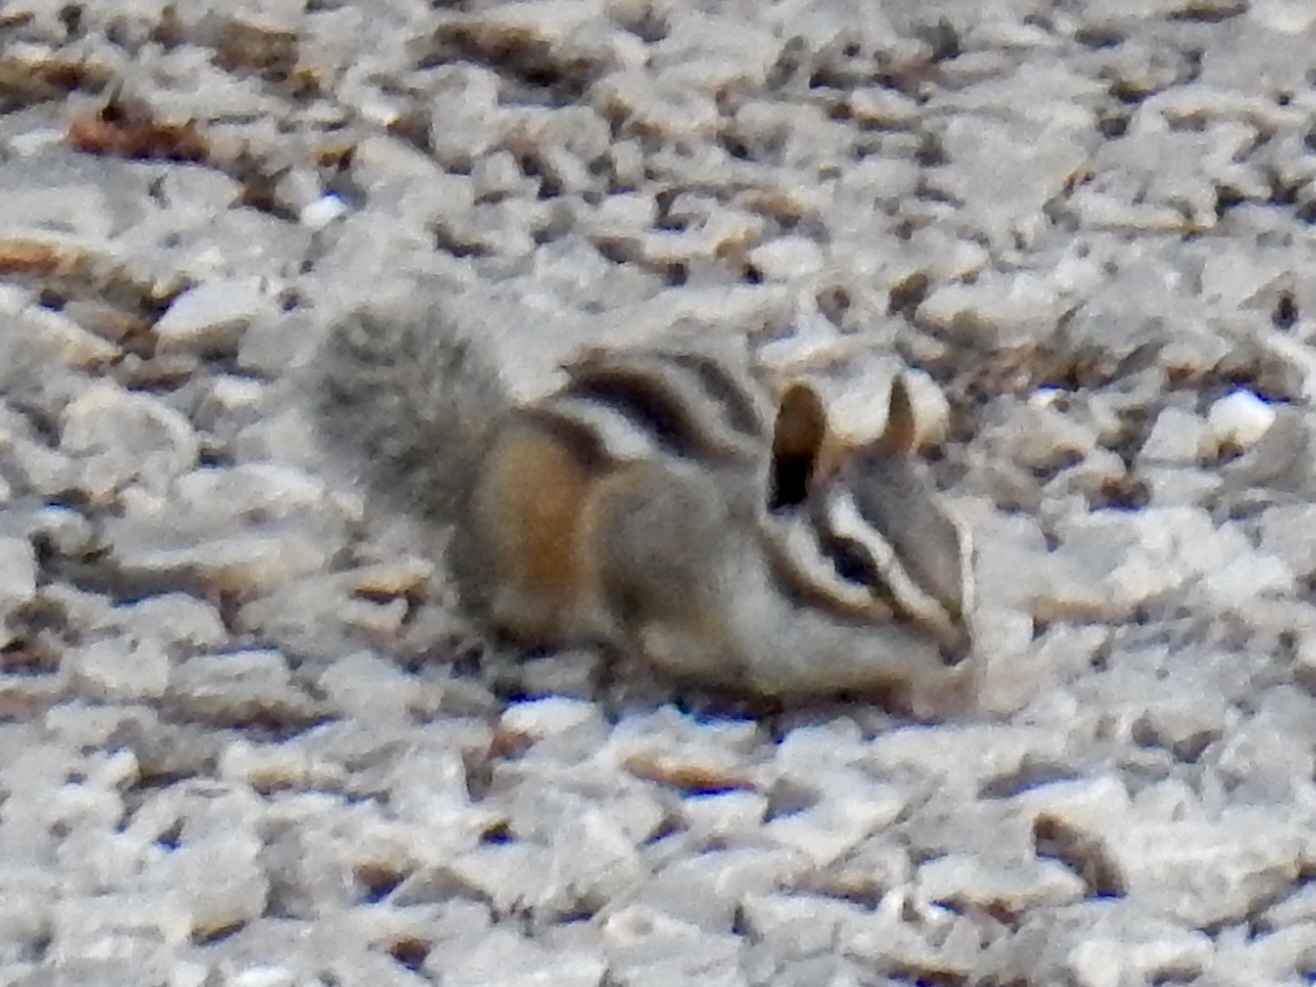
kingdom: Animalia
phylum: Chordata
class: Mammalia
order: Rodentia
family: Sciuridae
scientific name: Sciuridae
